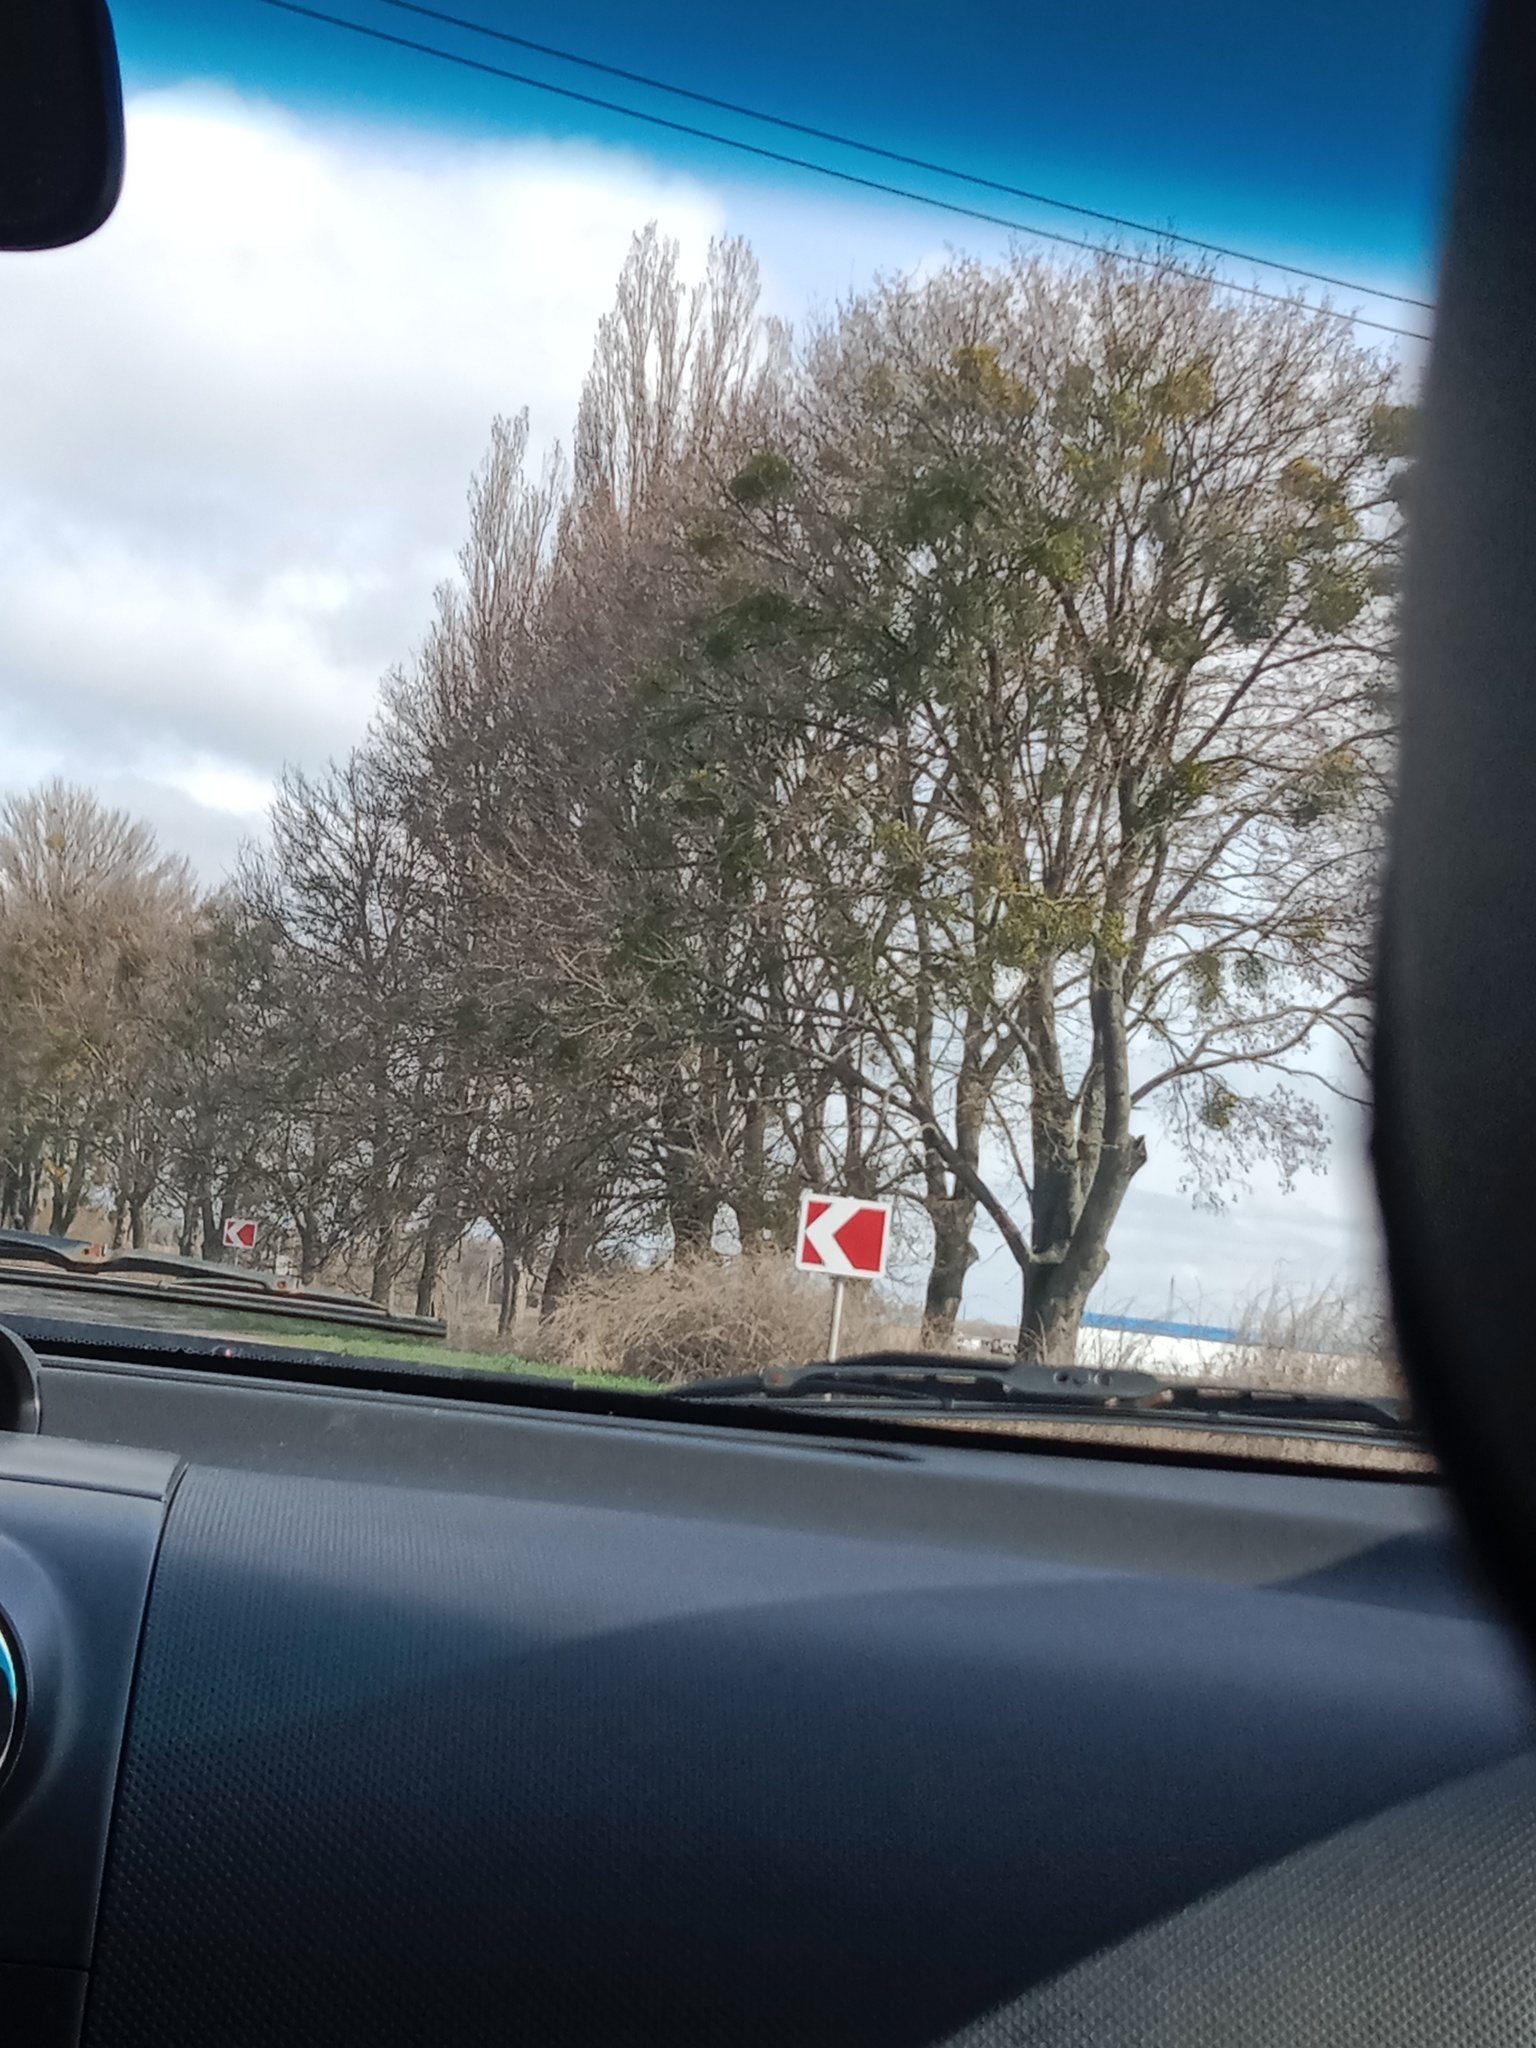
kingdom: Plantae
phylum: Tracheophyta
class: Magnoliopsida
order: Santalales
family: Viscaceae
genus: Viscum
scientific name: Viscum album
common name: Mistletoe
